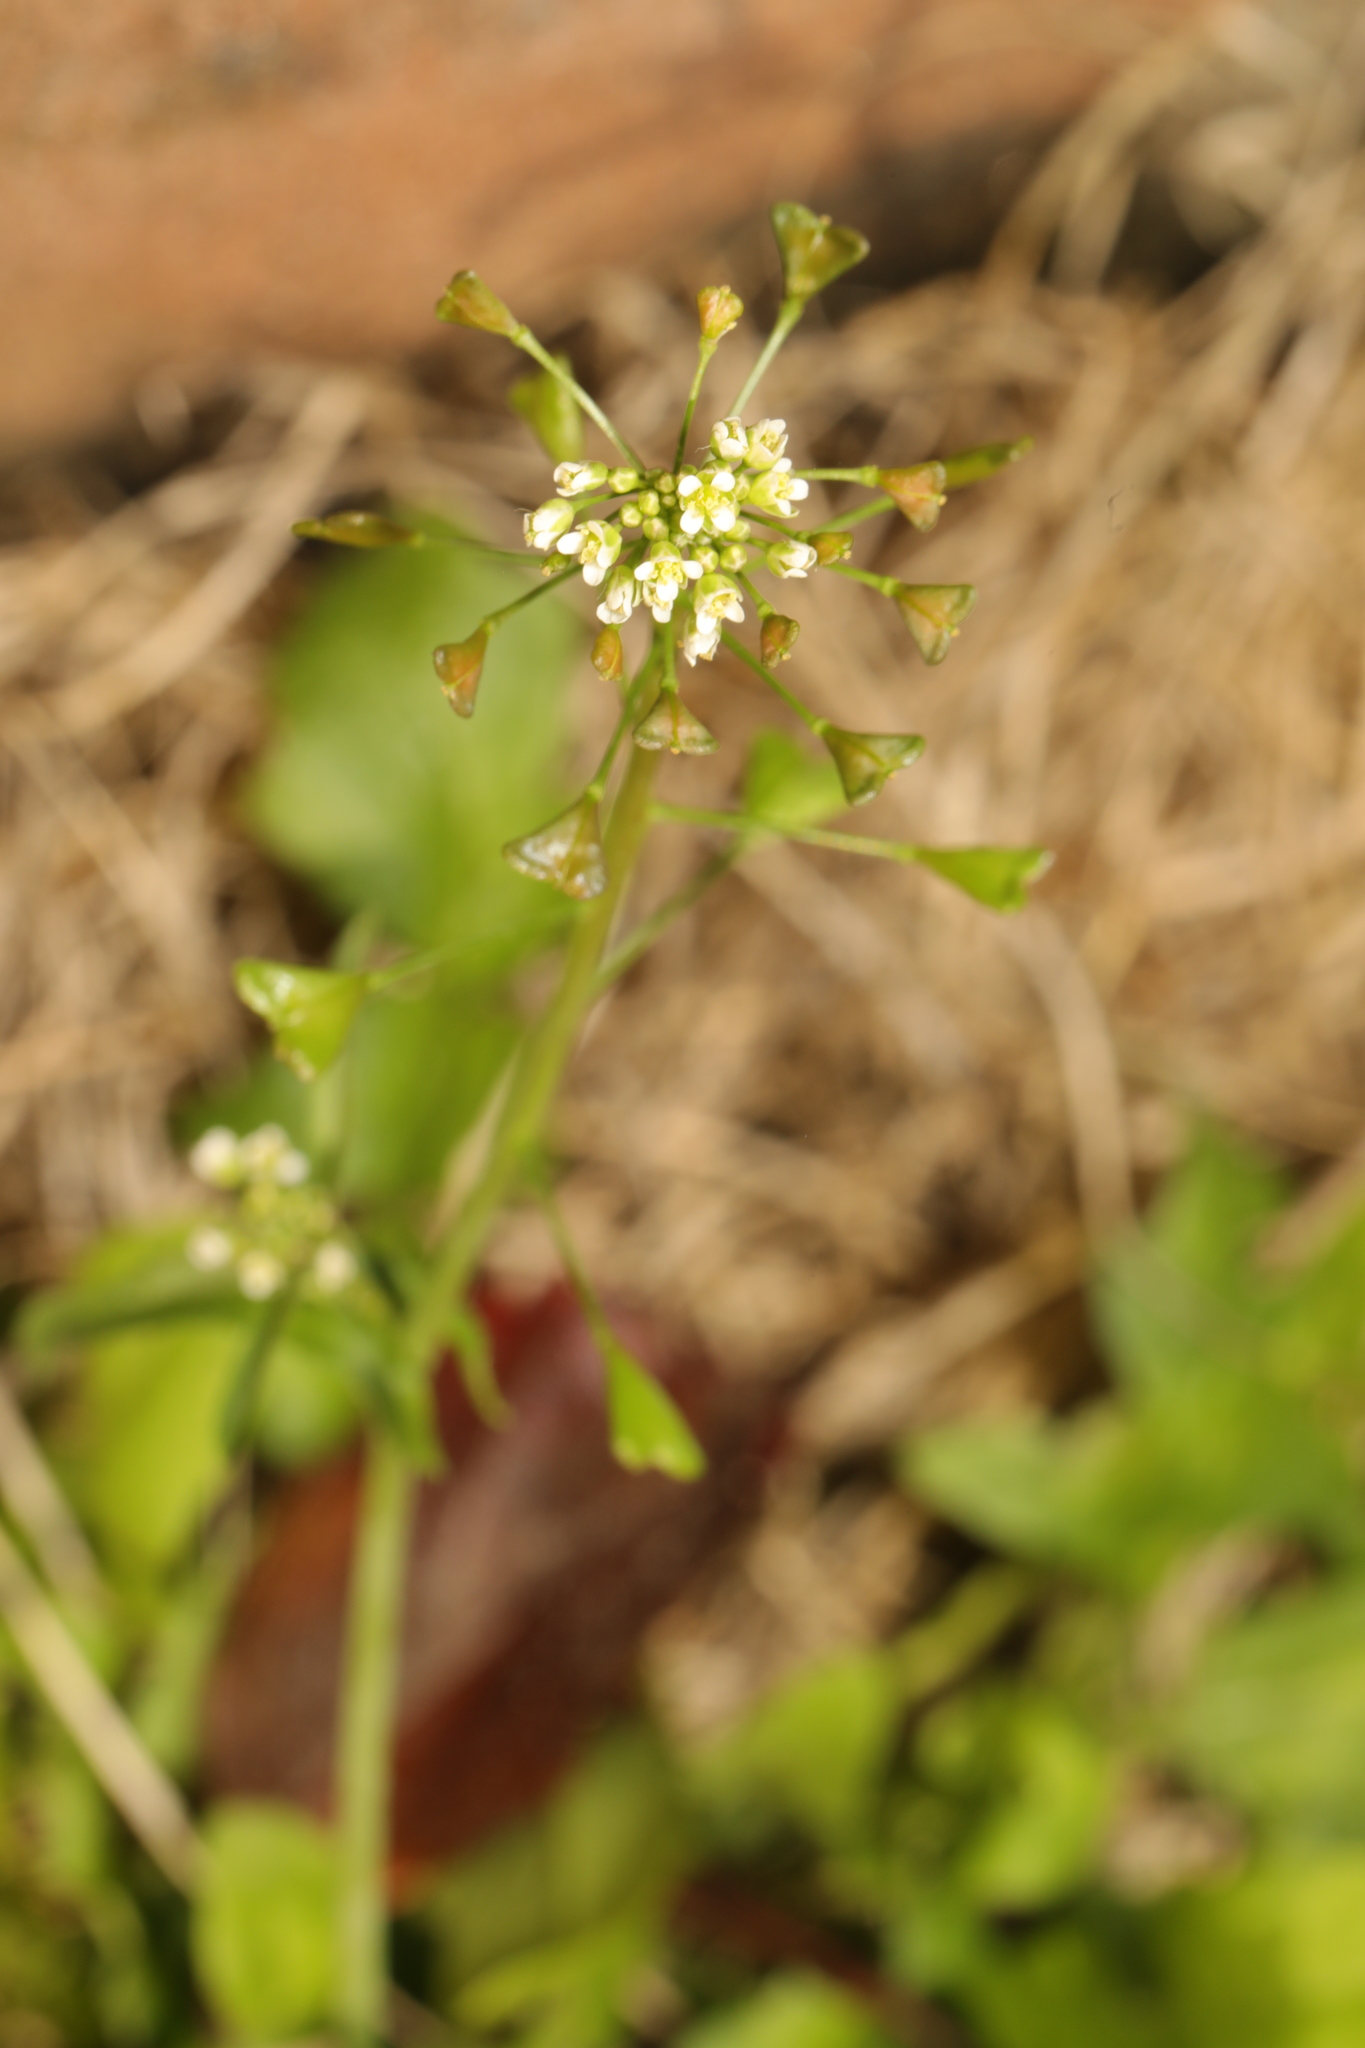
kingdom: Plantae
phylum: Tracheophyta
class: Magnoliopsida
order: Brassicales
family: Brassicaceae
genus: Capsella
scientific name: Capsella bursa-pastoris
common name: Shepherd's purse
